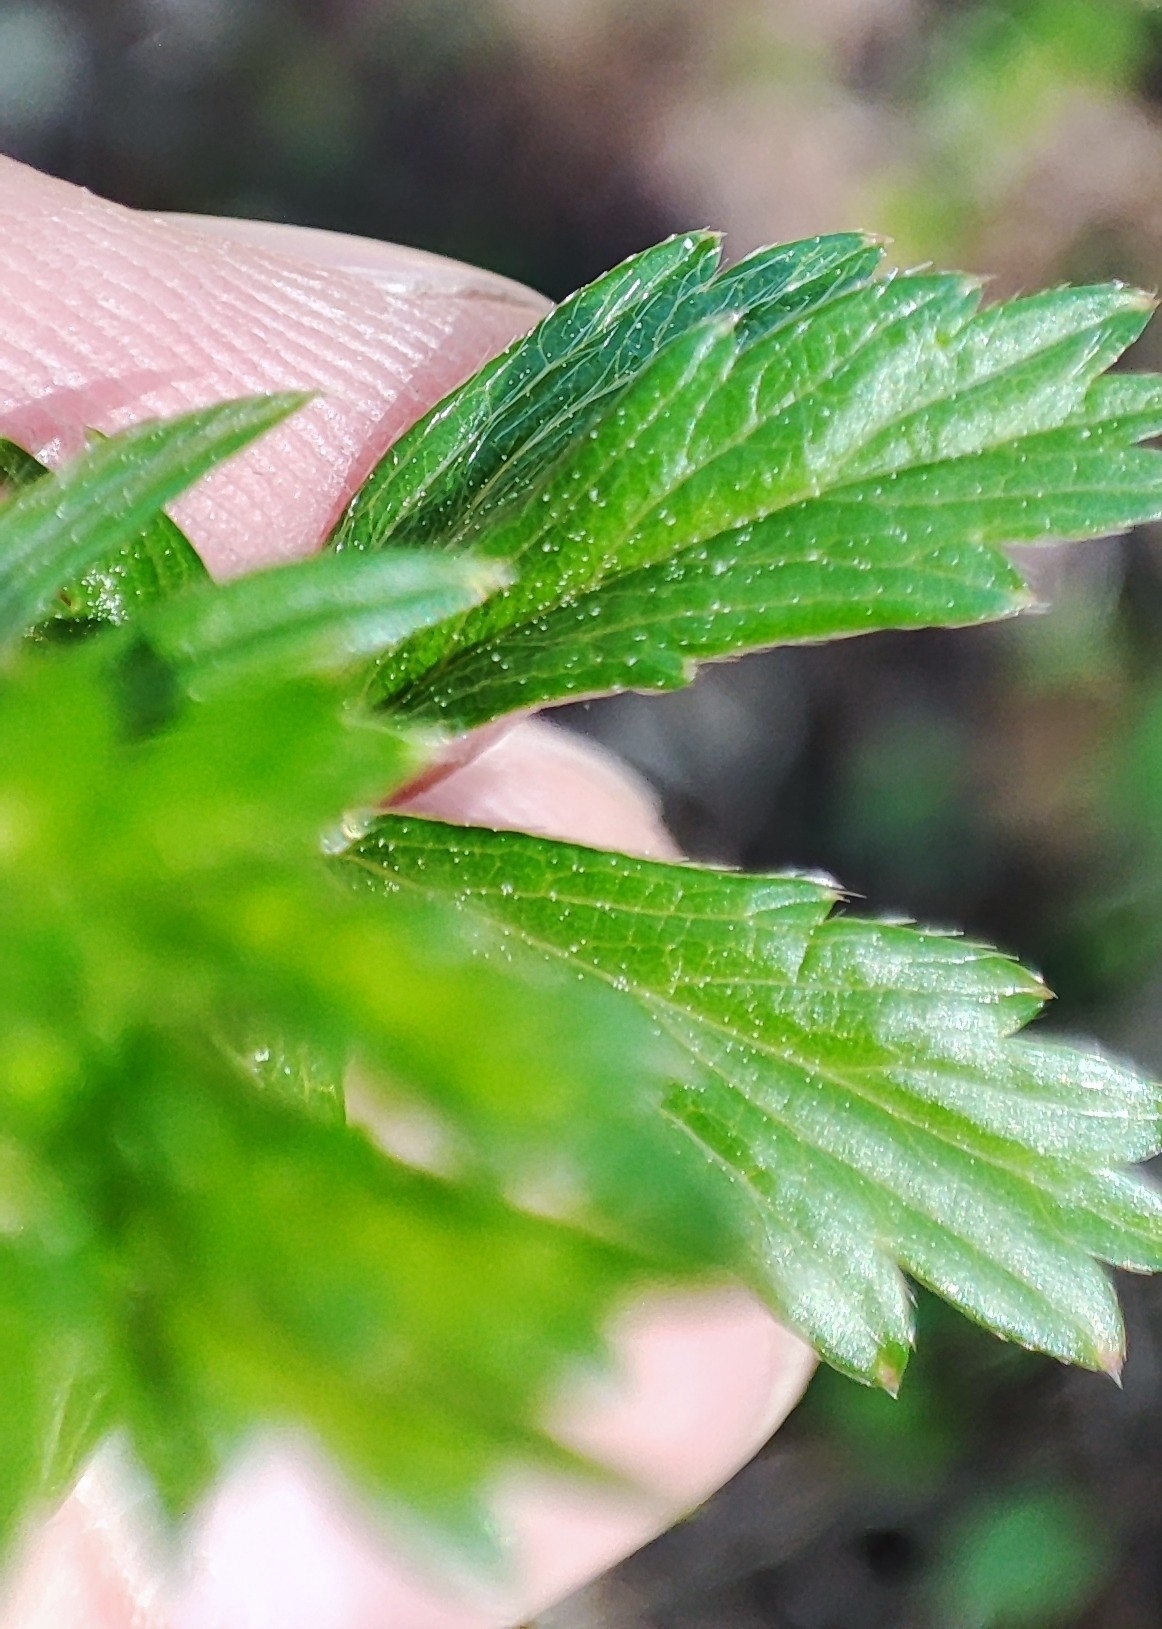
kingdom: Plantae
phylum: Tracheophyta
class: Magnoliopsida
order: Rosales
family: Rosaceae
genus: Potentilla
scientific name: Potentilla erecta
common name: Tormentil
